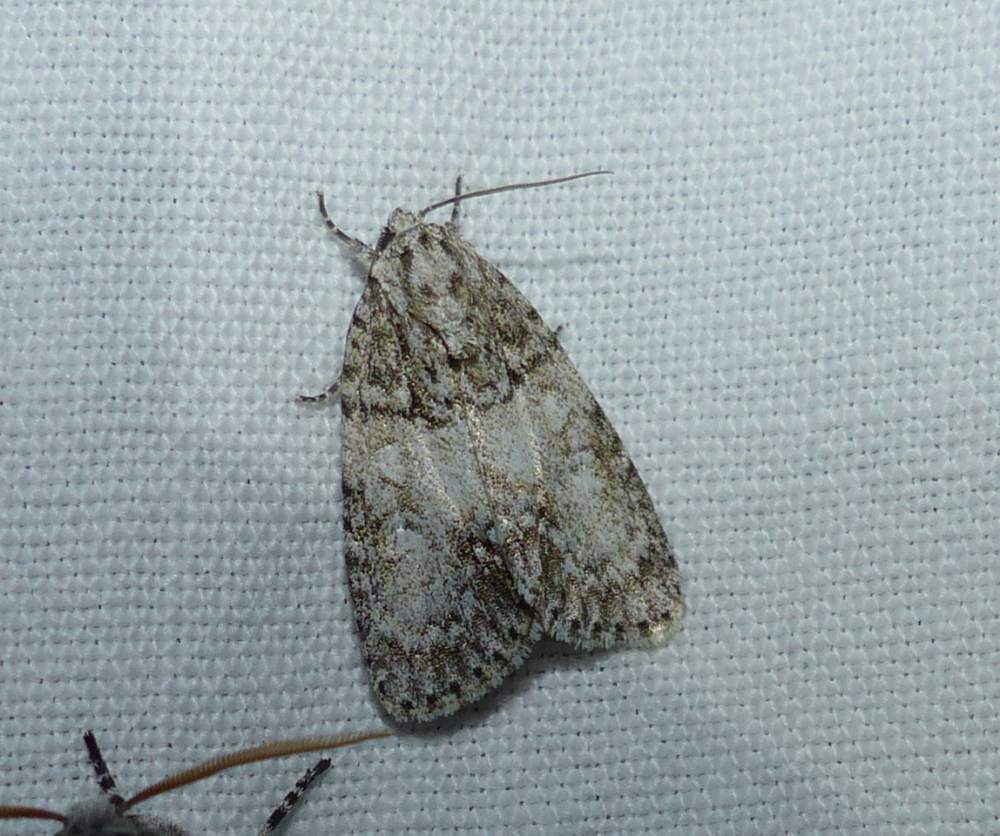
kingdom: Animalia
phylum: Arthropoda
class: Insecta
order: Lepidoptera
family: Noctuidae
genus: Acronicta
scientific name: Acronicta retardata
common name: Maple dagger
